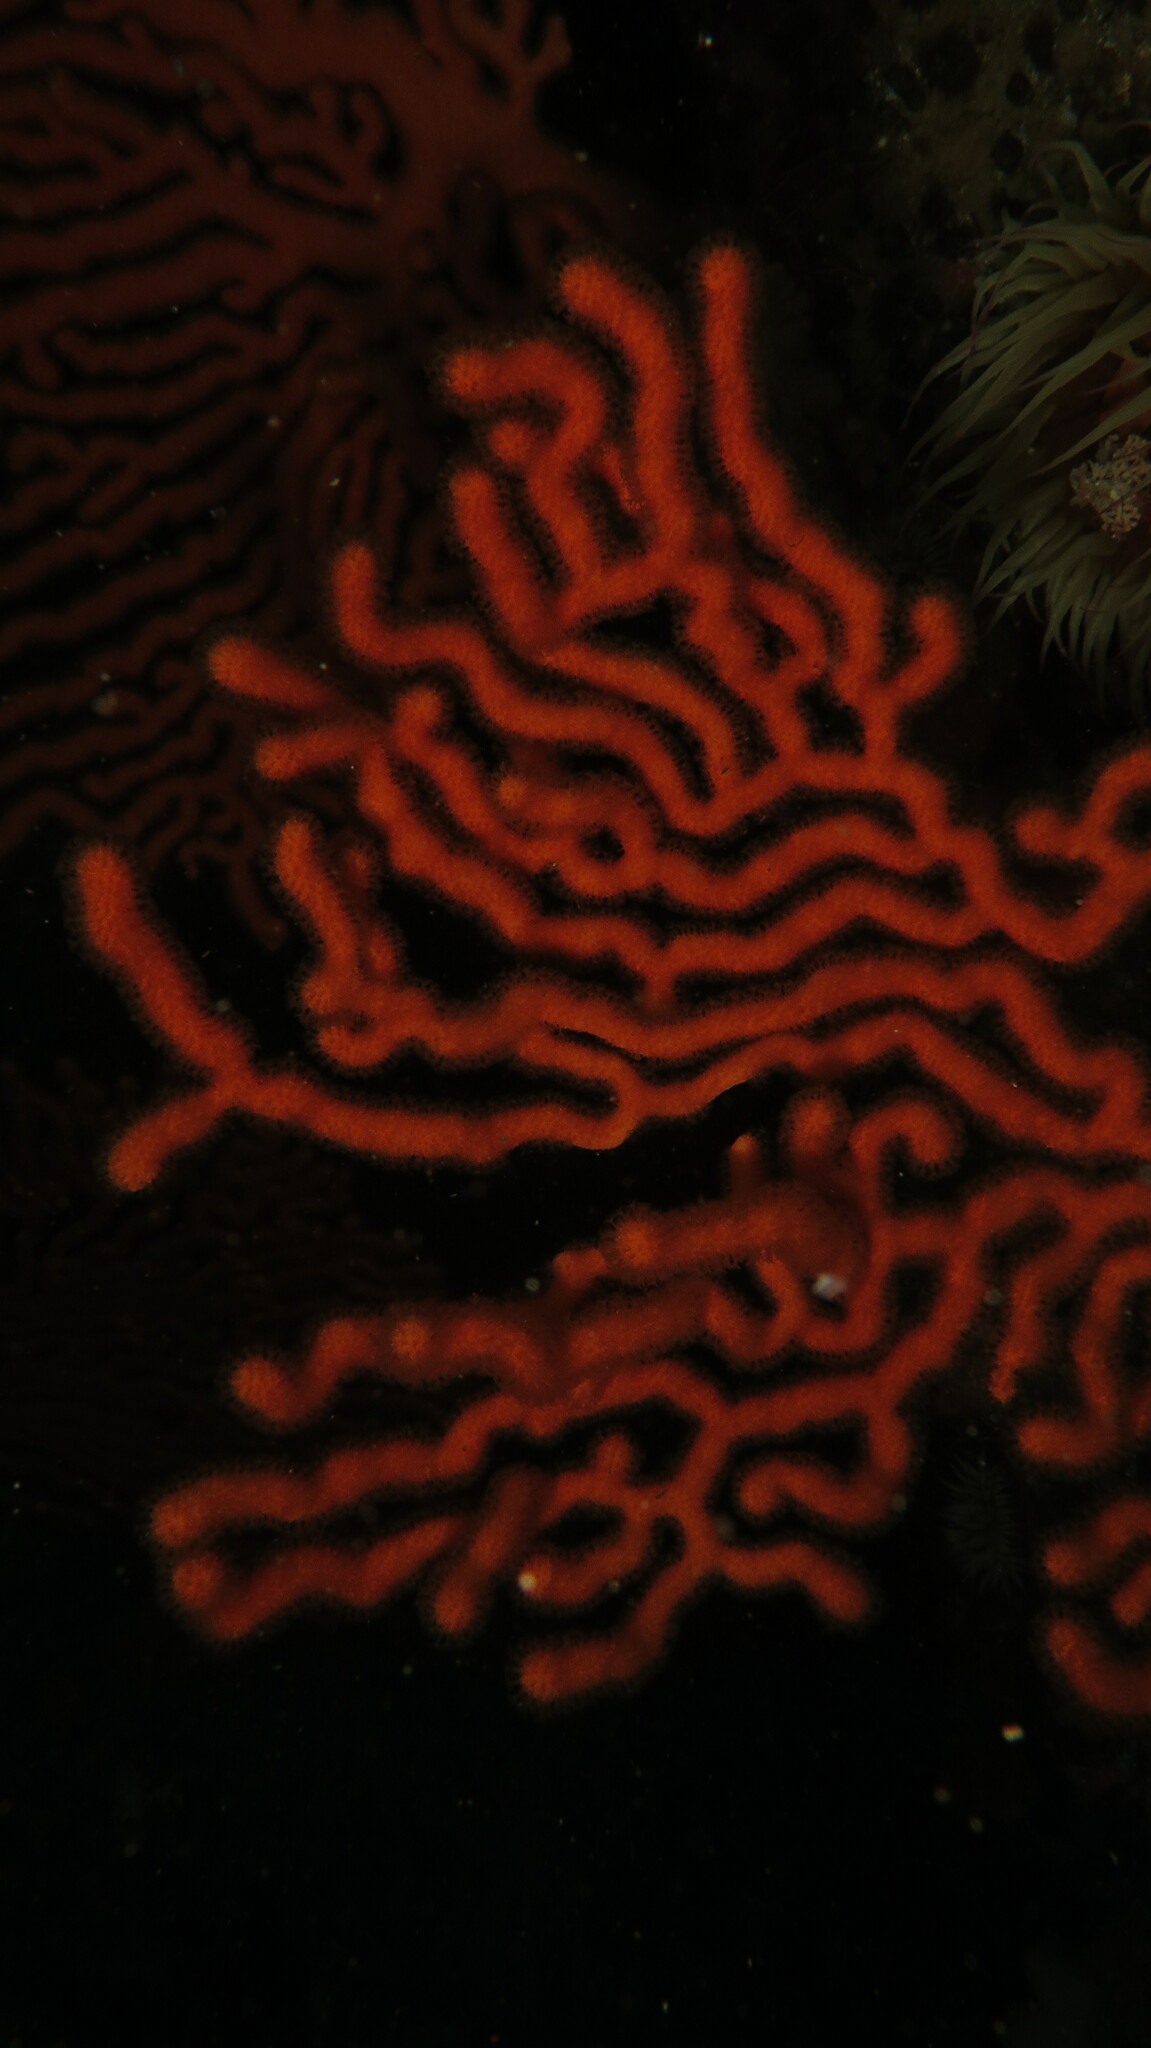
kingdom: Animalia
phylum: Cnidaria
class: Anthozoa
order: Malacalcyonacea
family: Eunicellidae
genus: Eunicella
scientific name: Eunicella tricoronata
